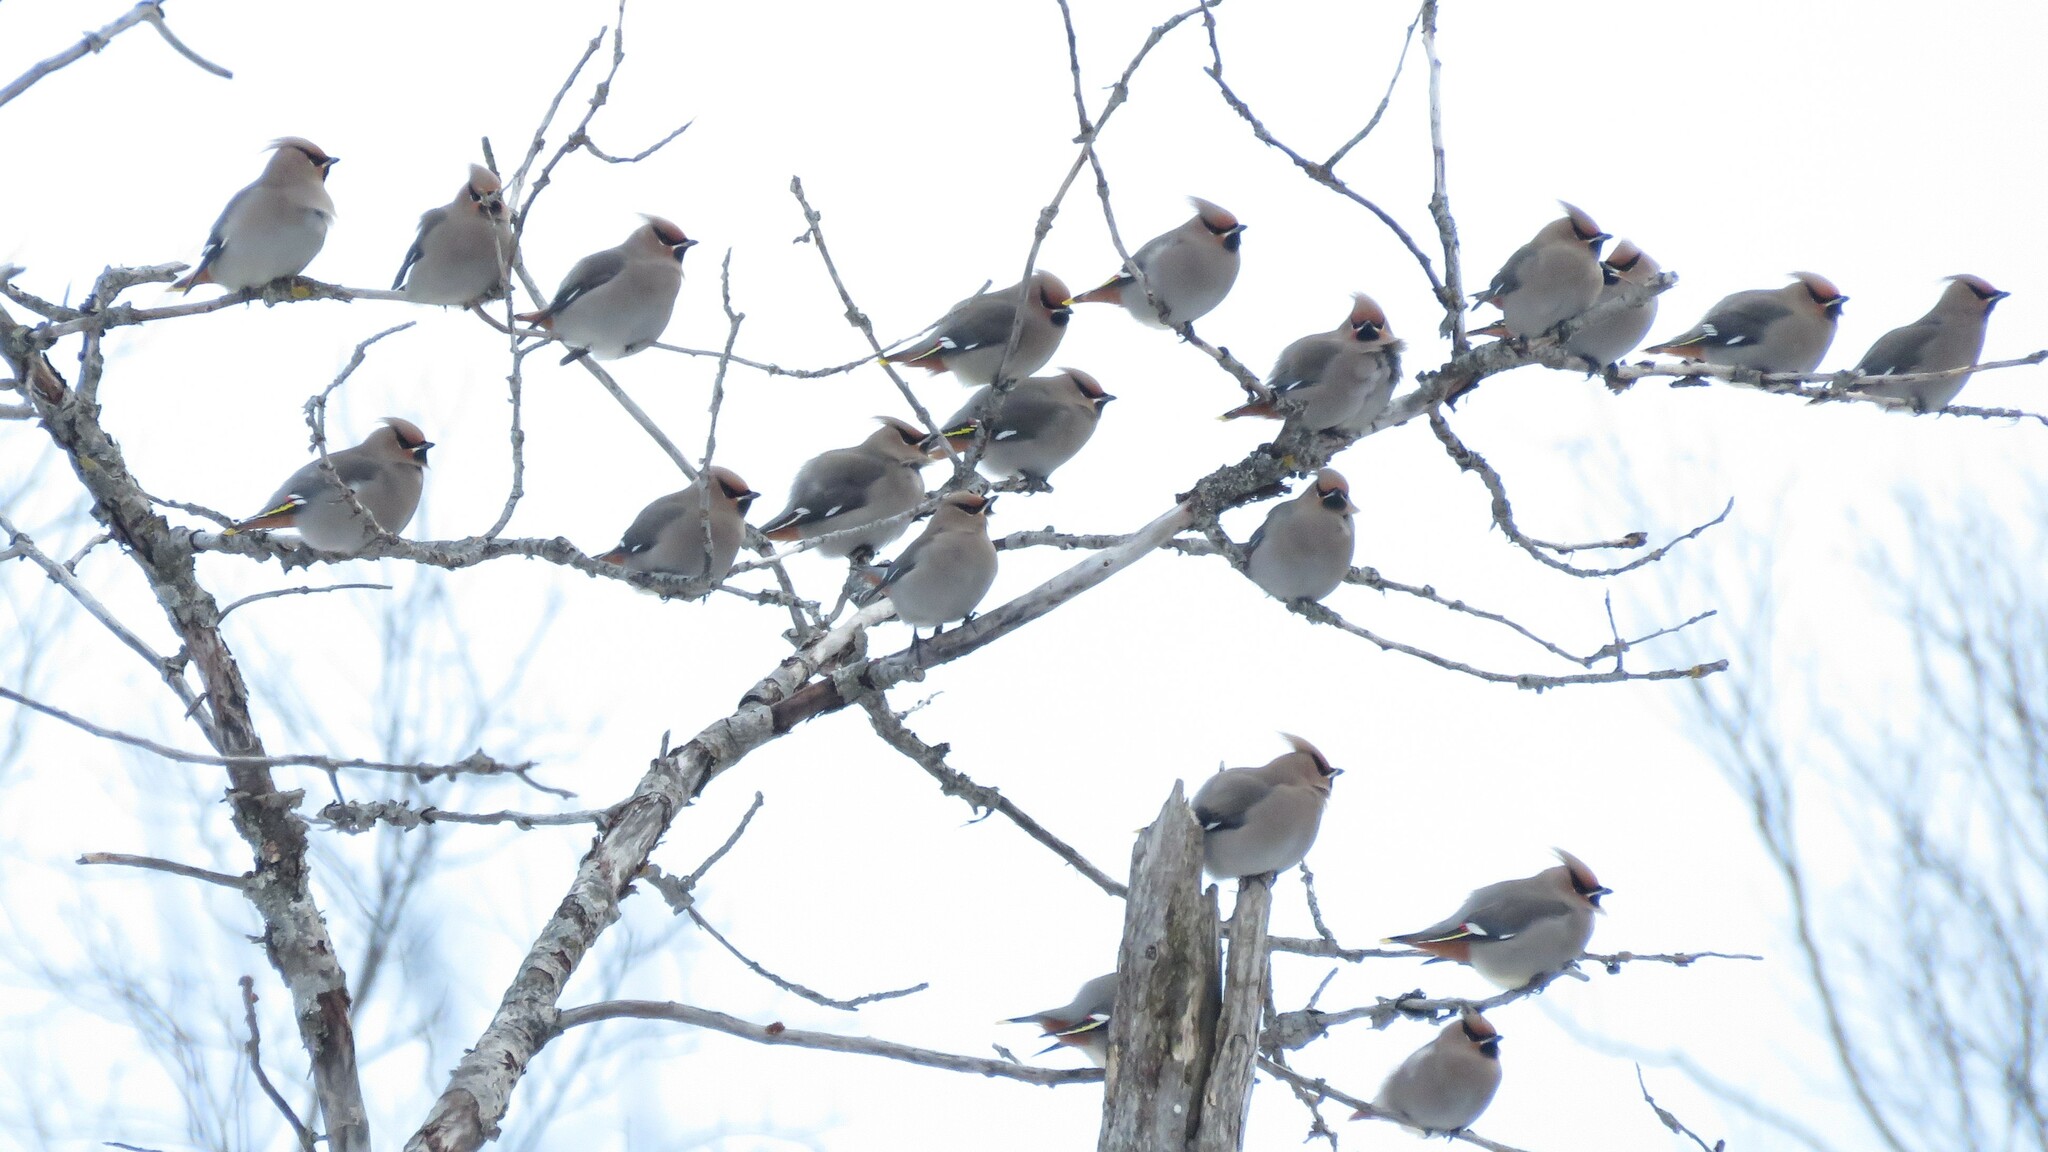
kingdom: Animalia
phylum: Chordata
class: Aves
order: Passeriformes
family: Bombycillidae
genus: Bombycilla
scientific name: Bombycilla garrulus
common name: Bohemian waxwing
